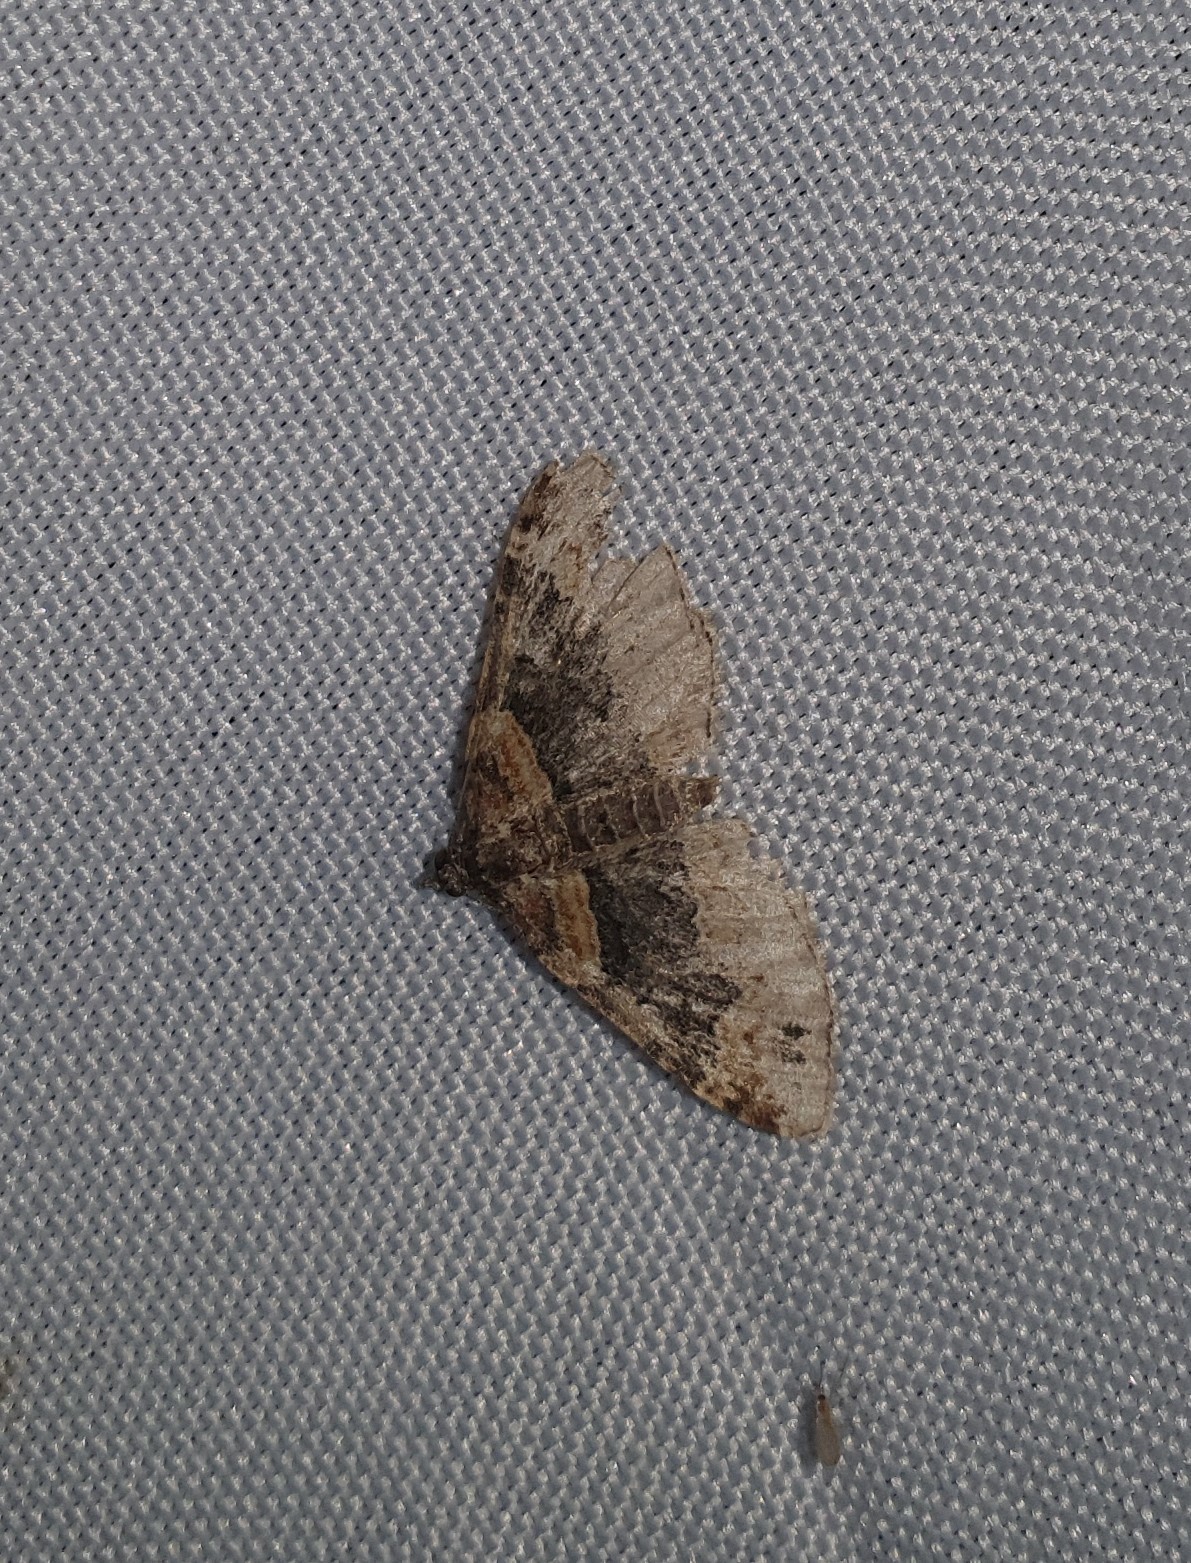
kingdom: Animalia
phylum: Arthropoda
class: Insecta
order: Lepidoptera
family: Geometridae
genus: Xanthorhoe
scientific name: Xanthorhoe ferrugata
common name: Dark-barred twin-spot carpet
